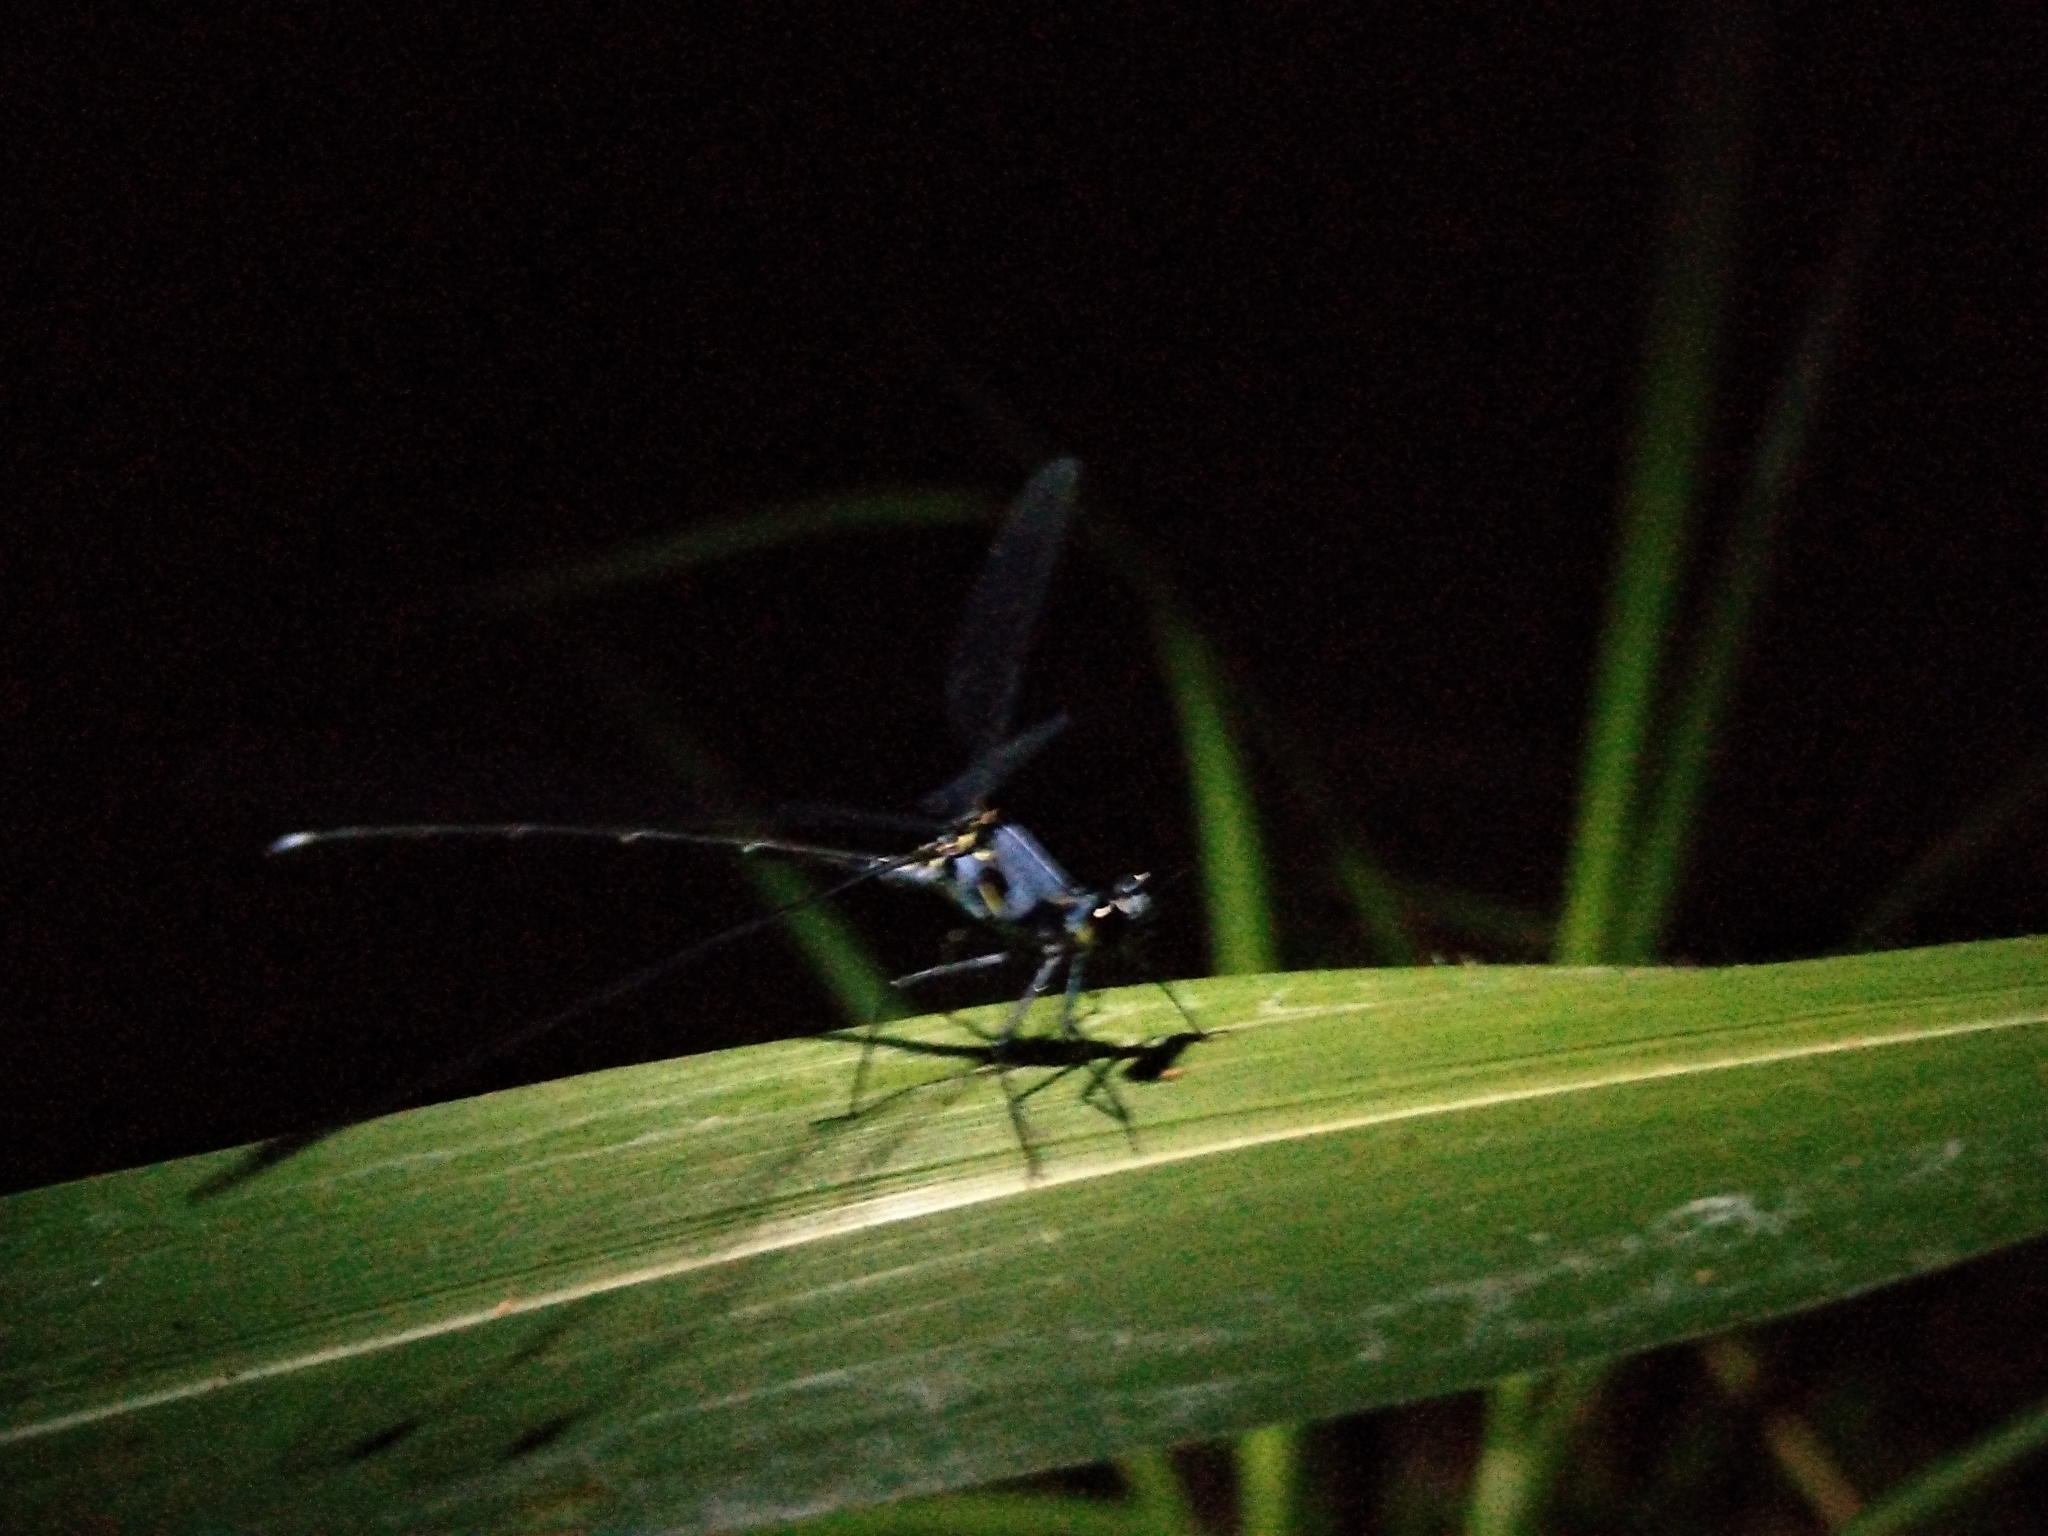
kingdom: Animalia
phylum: Arthropoda
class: Insecta
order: Odonata
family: Hypolestidae
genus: Hypolestes
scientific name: Hypolestes hatuey
